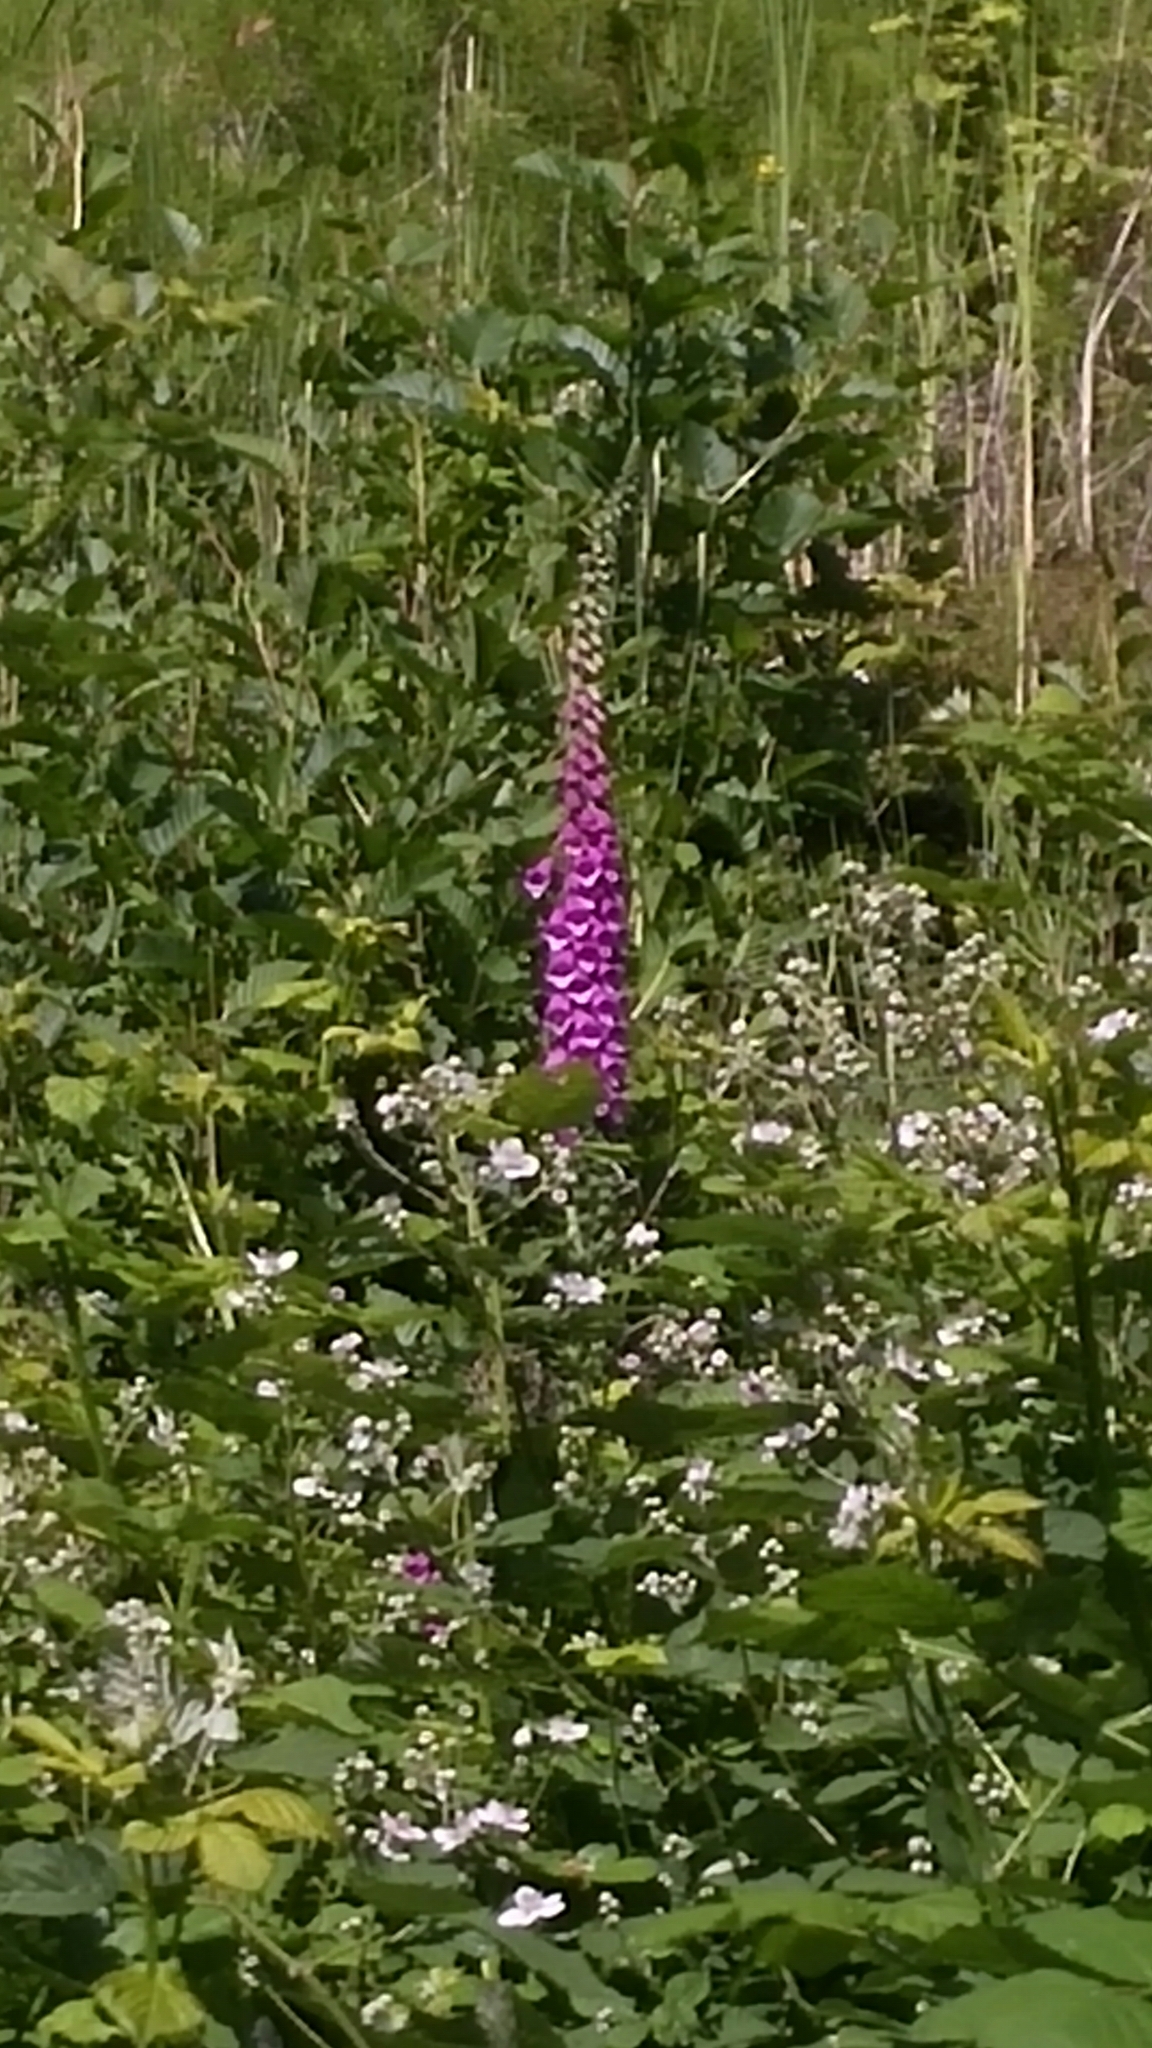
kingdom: Plantae
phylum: Tracheophyta
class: Magnoliopsida
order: Lamiales
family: Plantaginaceae
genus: Digitalis
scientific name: Digitalis purpurea
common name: Foxglove
